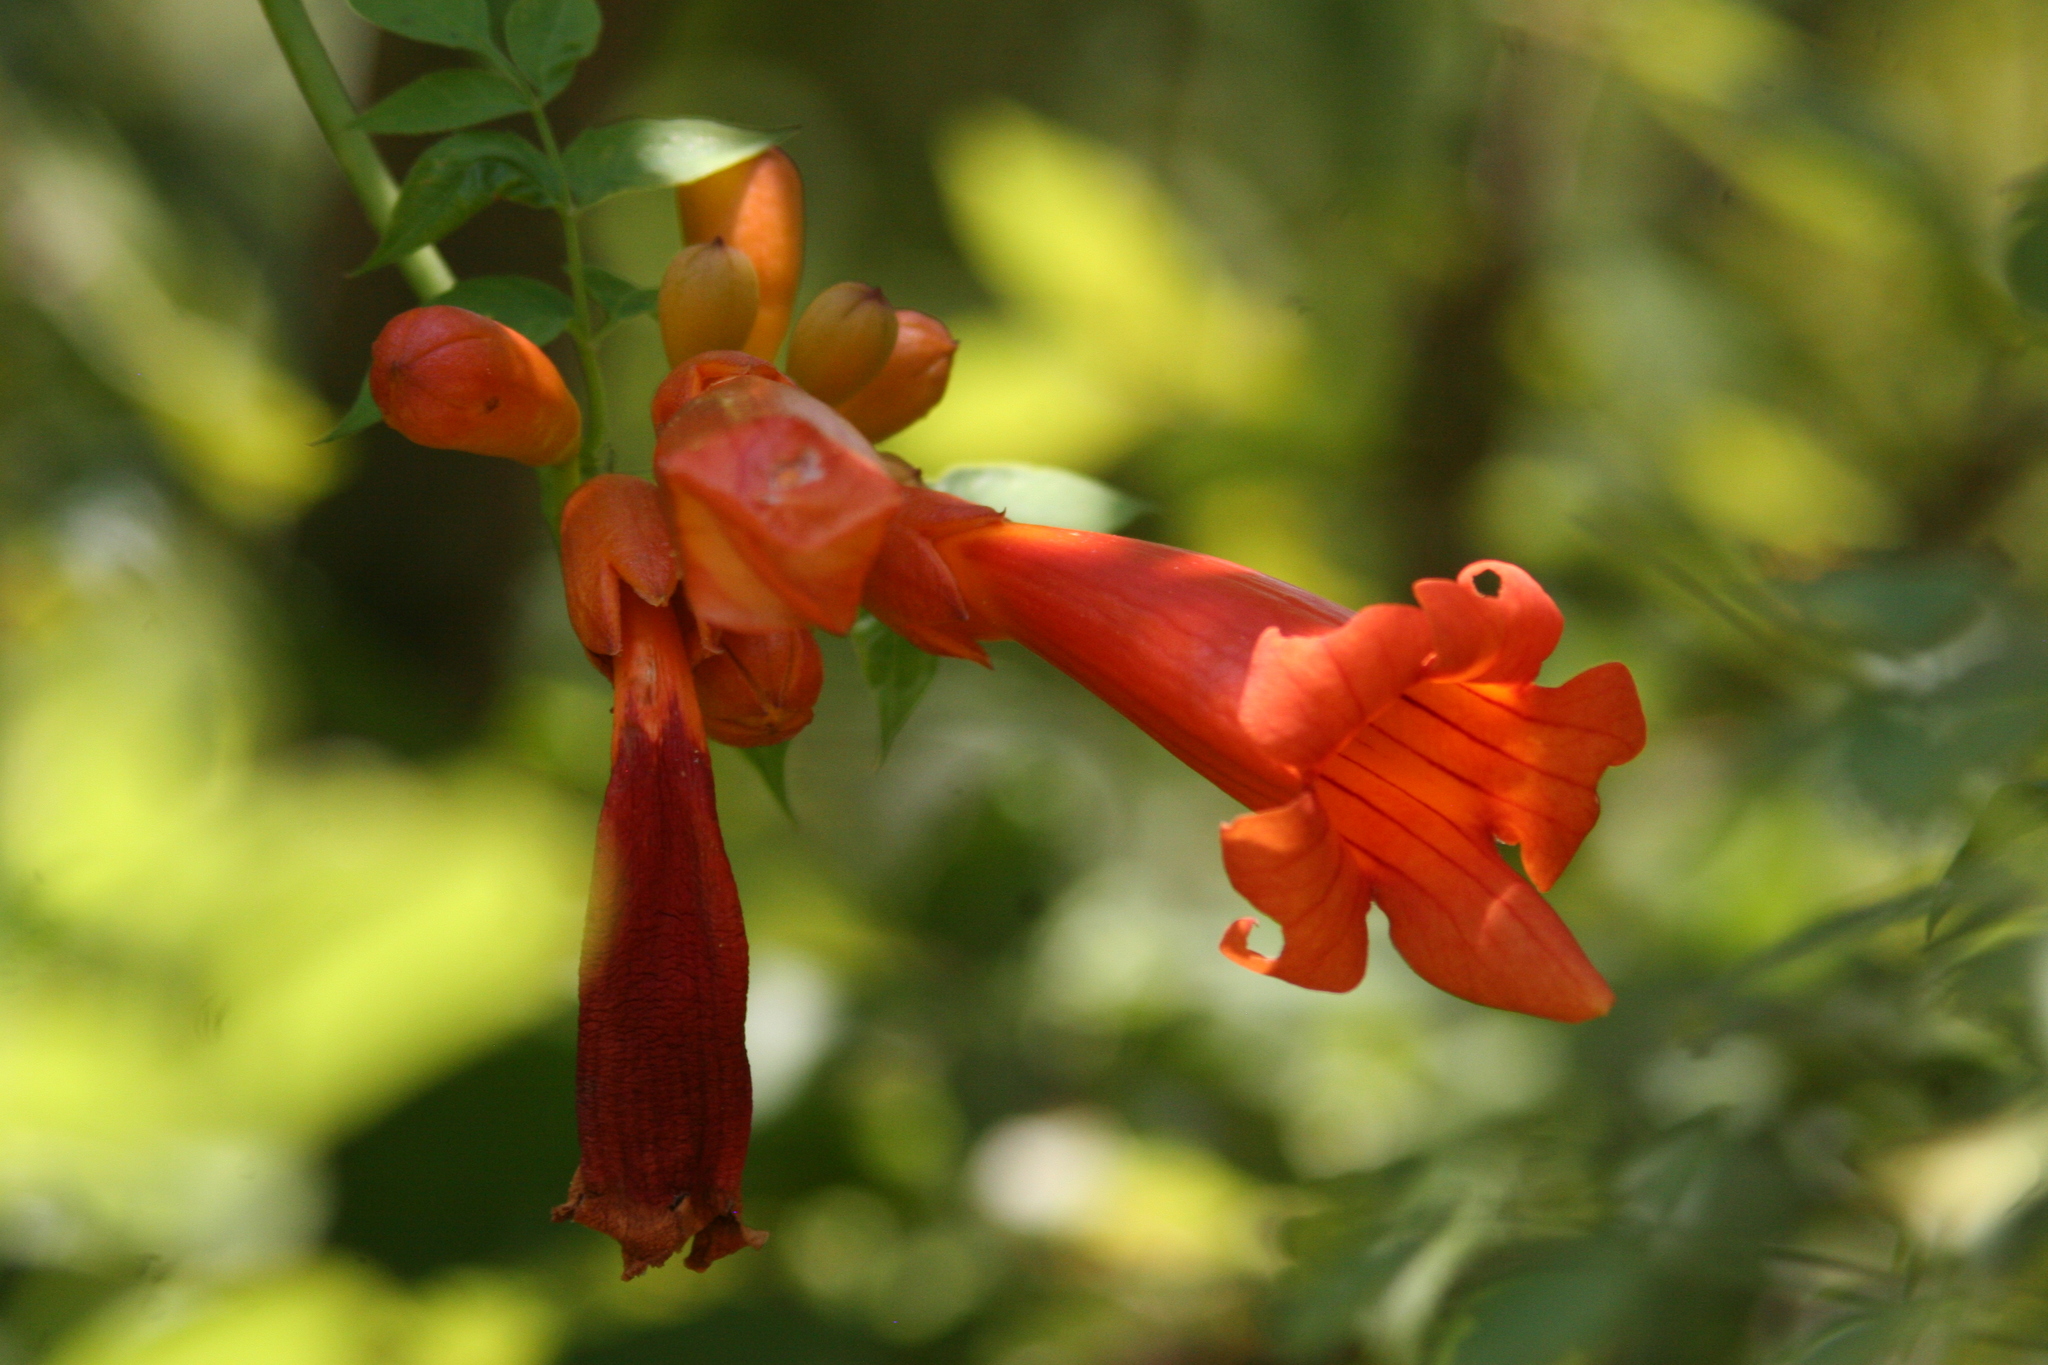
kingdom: Plantae
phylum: Tracheophyta
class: Magnoliopsida
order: Lamiales
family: Bignoniaceae
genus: Campsis
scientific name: Campsis radicans
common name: Trumpet-creeper
